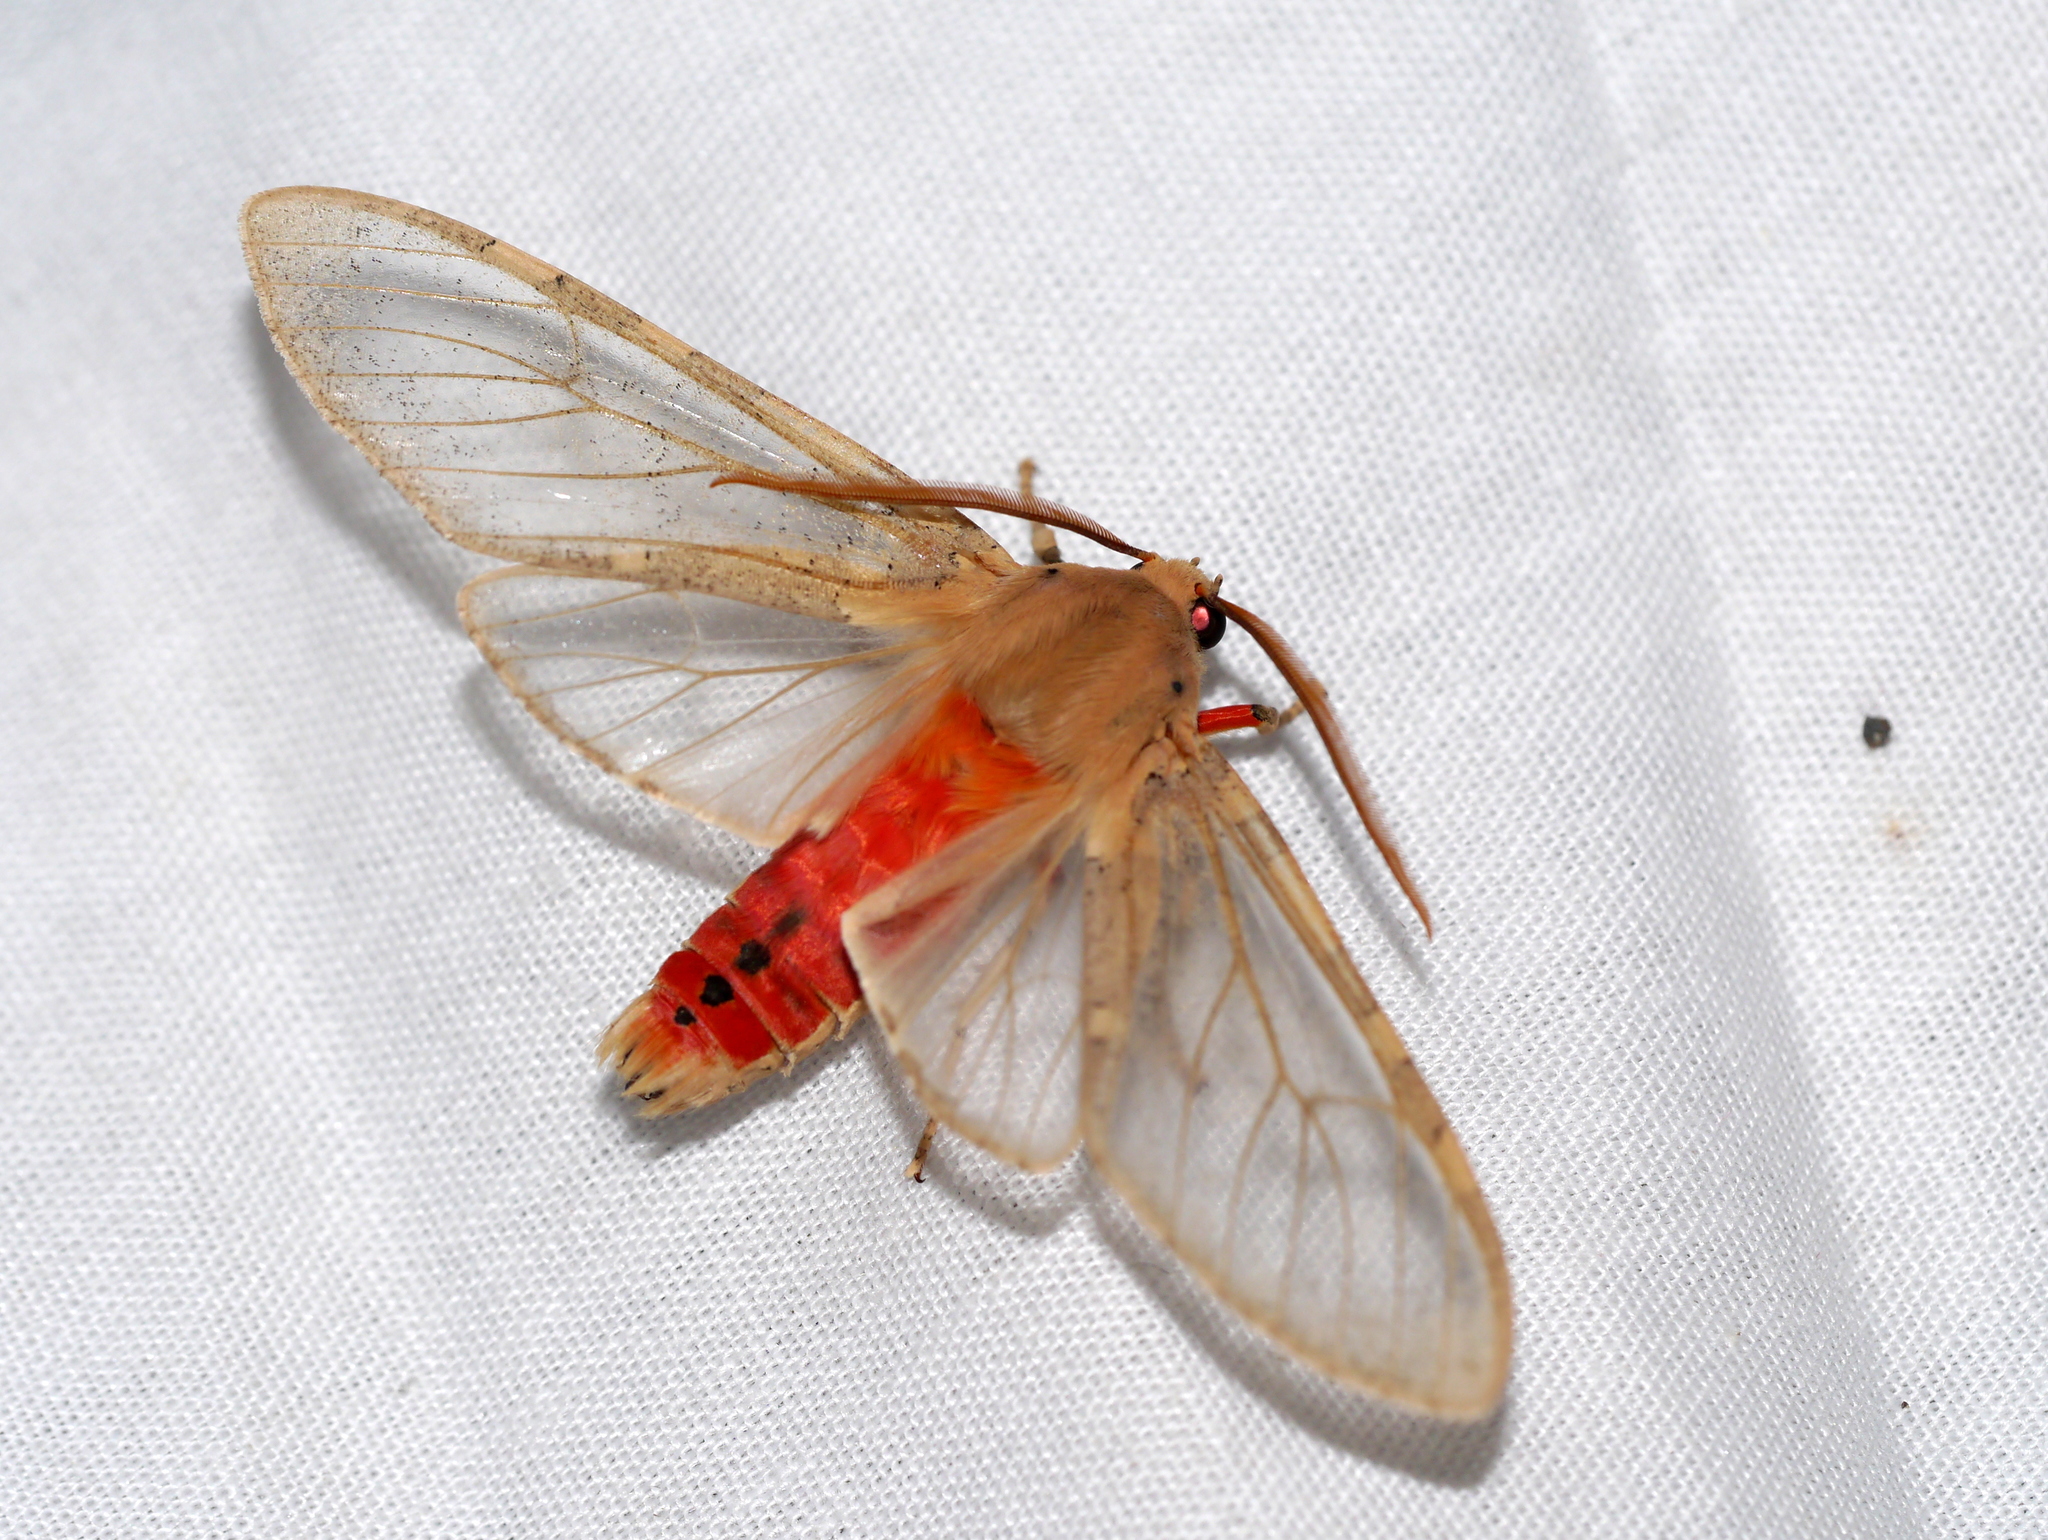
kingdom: Animalia
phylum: Arthropoda
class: Insecta
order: Lepidoptera
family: Erebidae
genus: Hemihyalea
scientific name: Hemihyalea edwardsii
